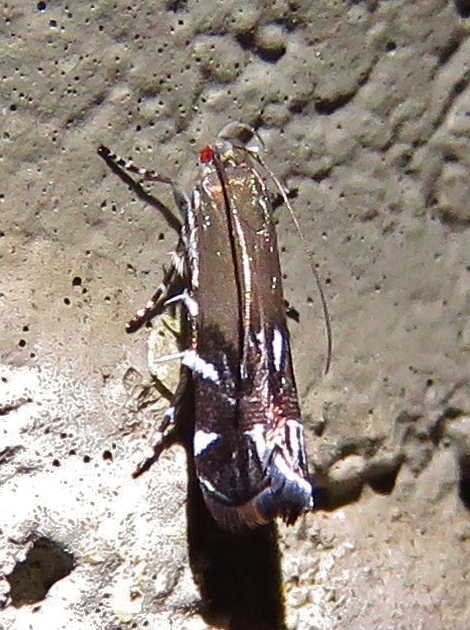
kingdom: Animalia
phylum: Arthropoda
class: Insecta
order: Lepidoptera
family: Gelechiidae
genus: Anacampsis
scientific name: Anacampsis levipedella
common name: Silver-dashed anacampsis
